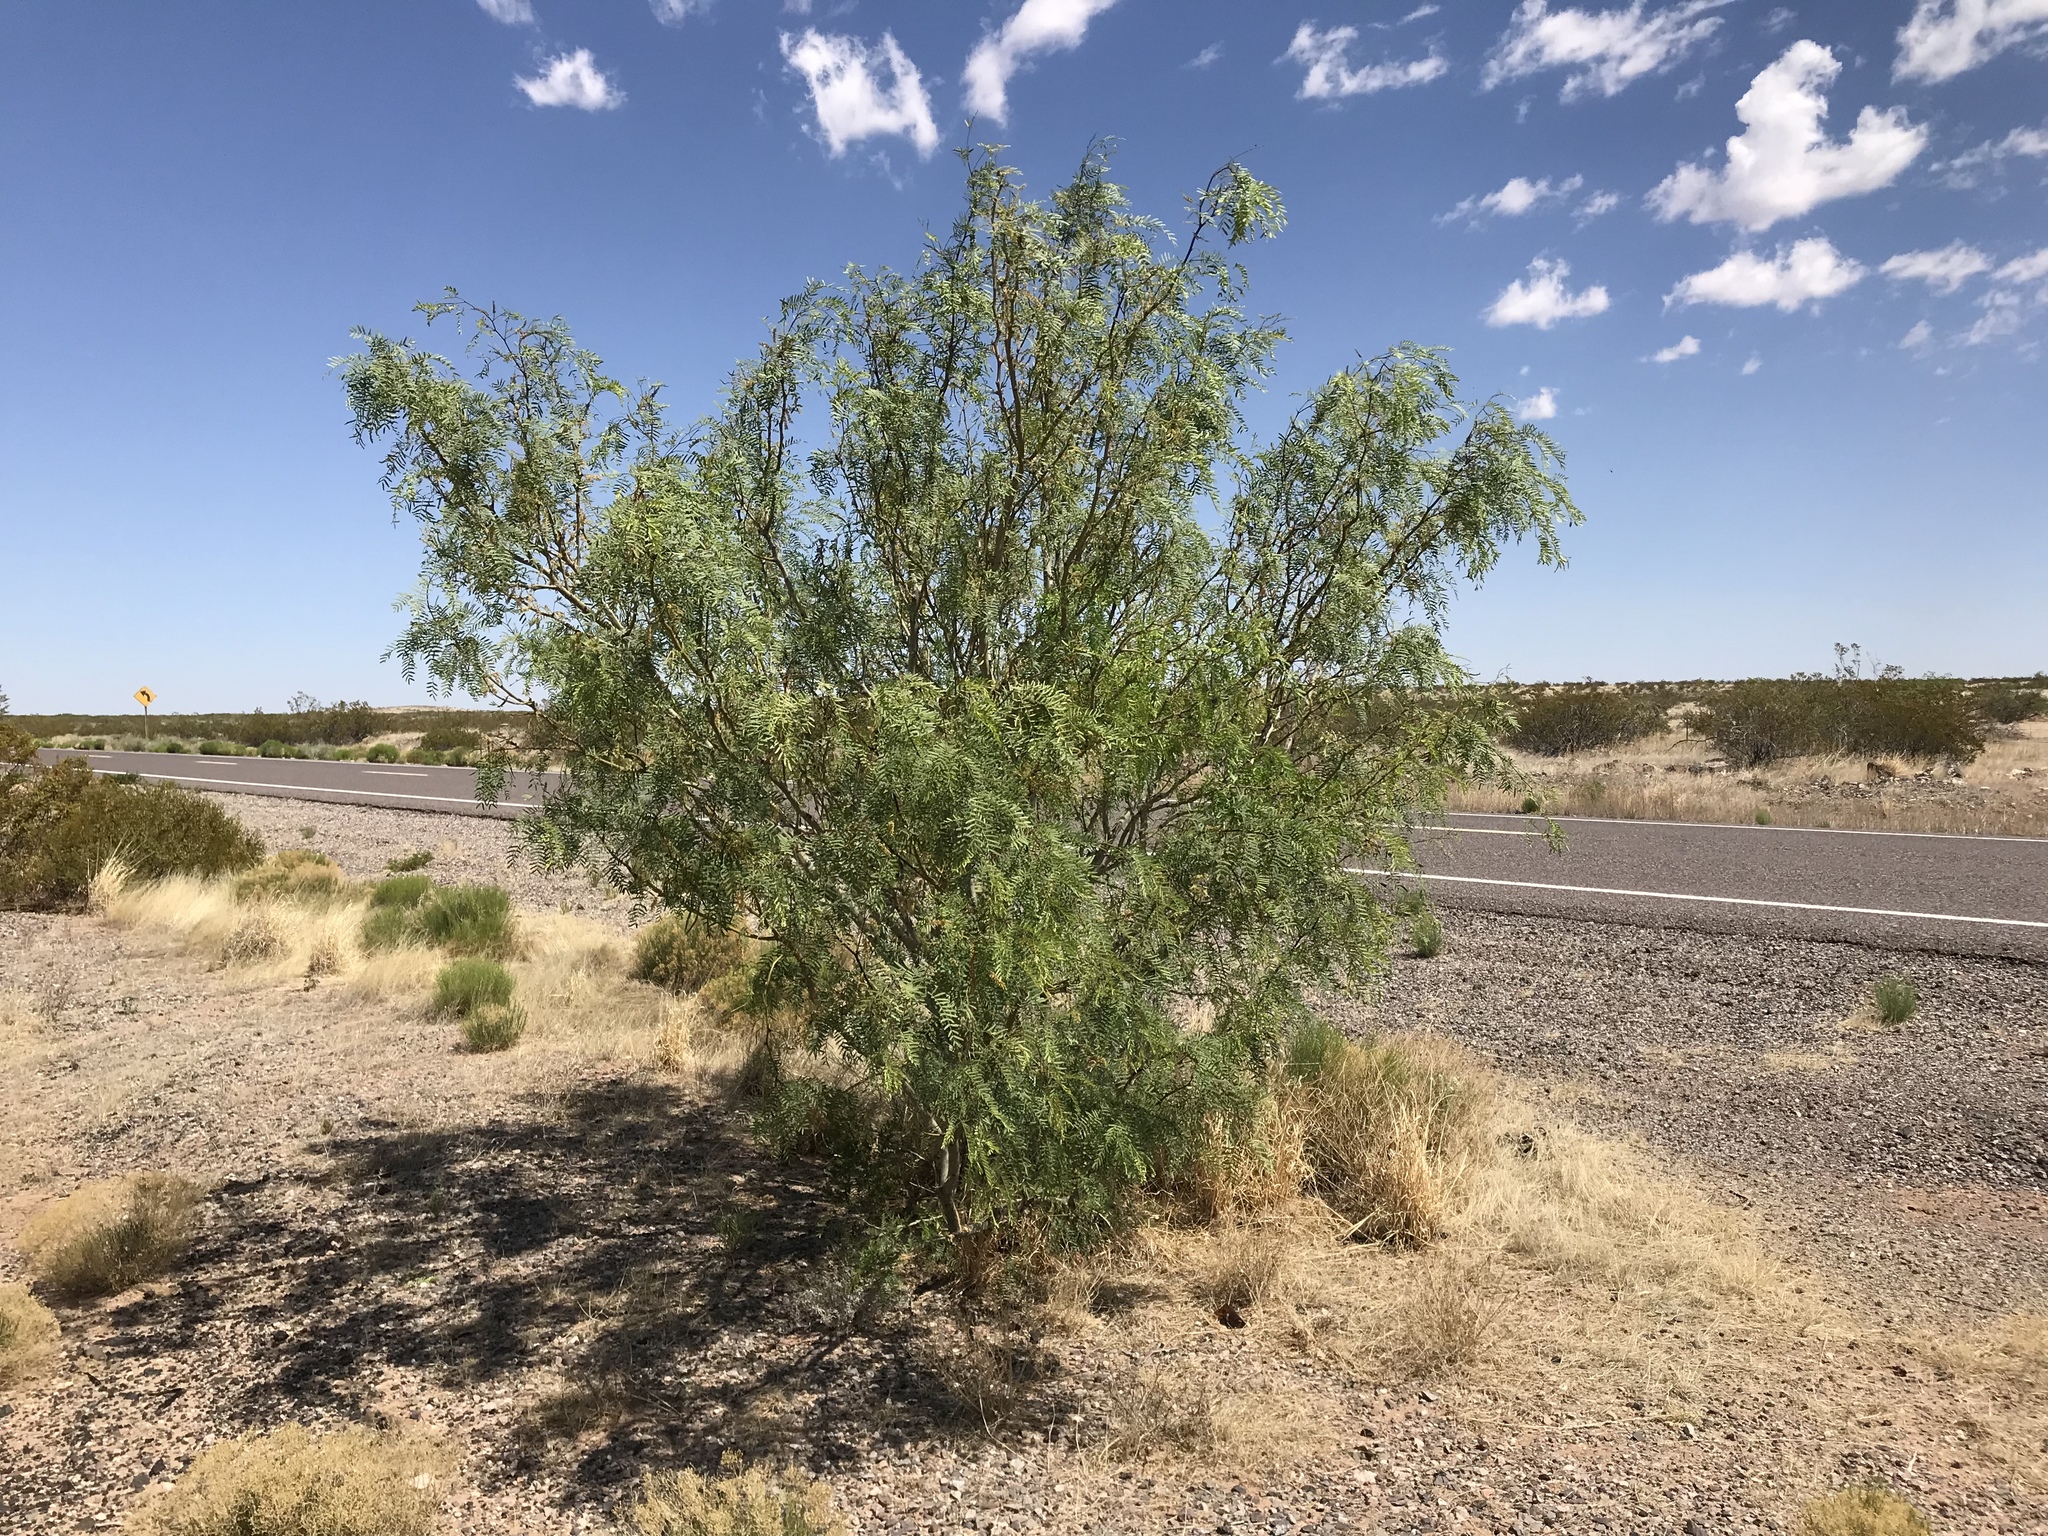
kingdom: Plantae
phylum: Tracheophyta
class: Magnoliopsida
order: Fabales
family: Fabaceae
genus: Prosopis
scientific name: Prosopis glandulosa
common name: Honey mesquite
